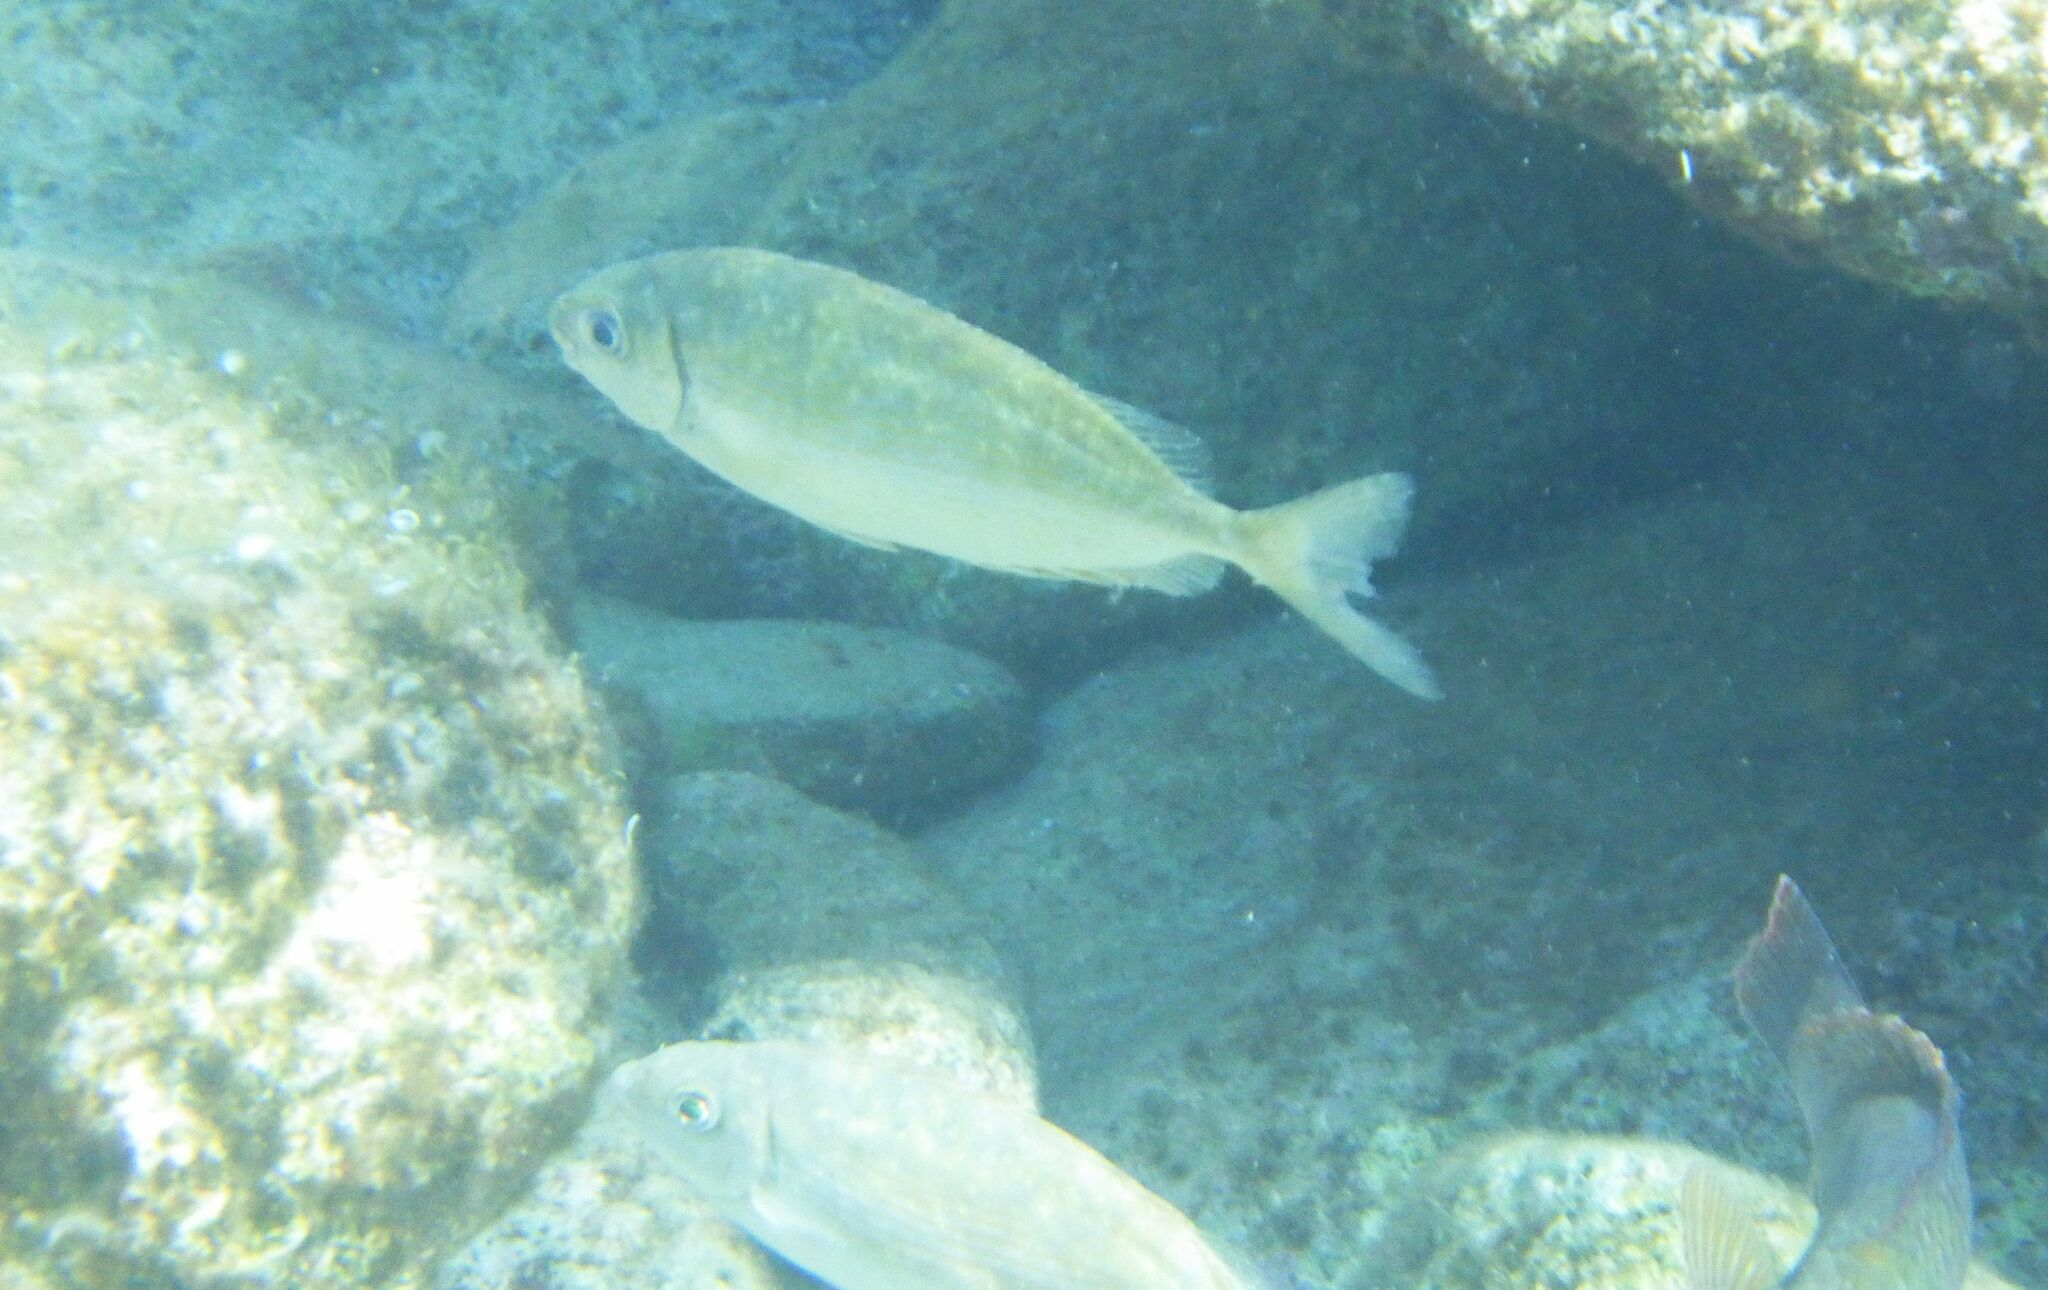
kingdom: Animalia
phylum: Chordata
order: Perciformes
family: Siganidae
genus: Siganus
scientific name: Siganus rivulatus
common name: Marbled spinefoot
